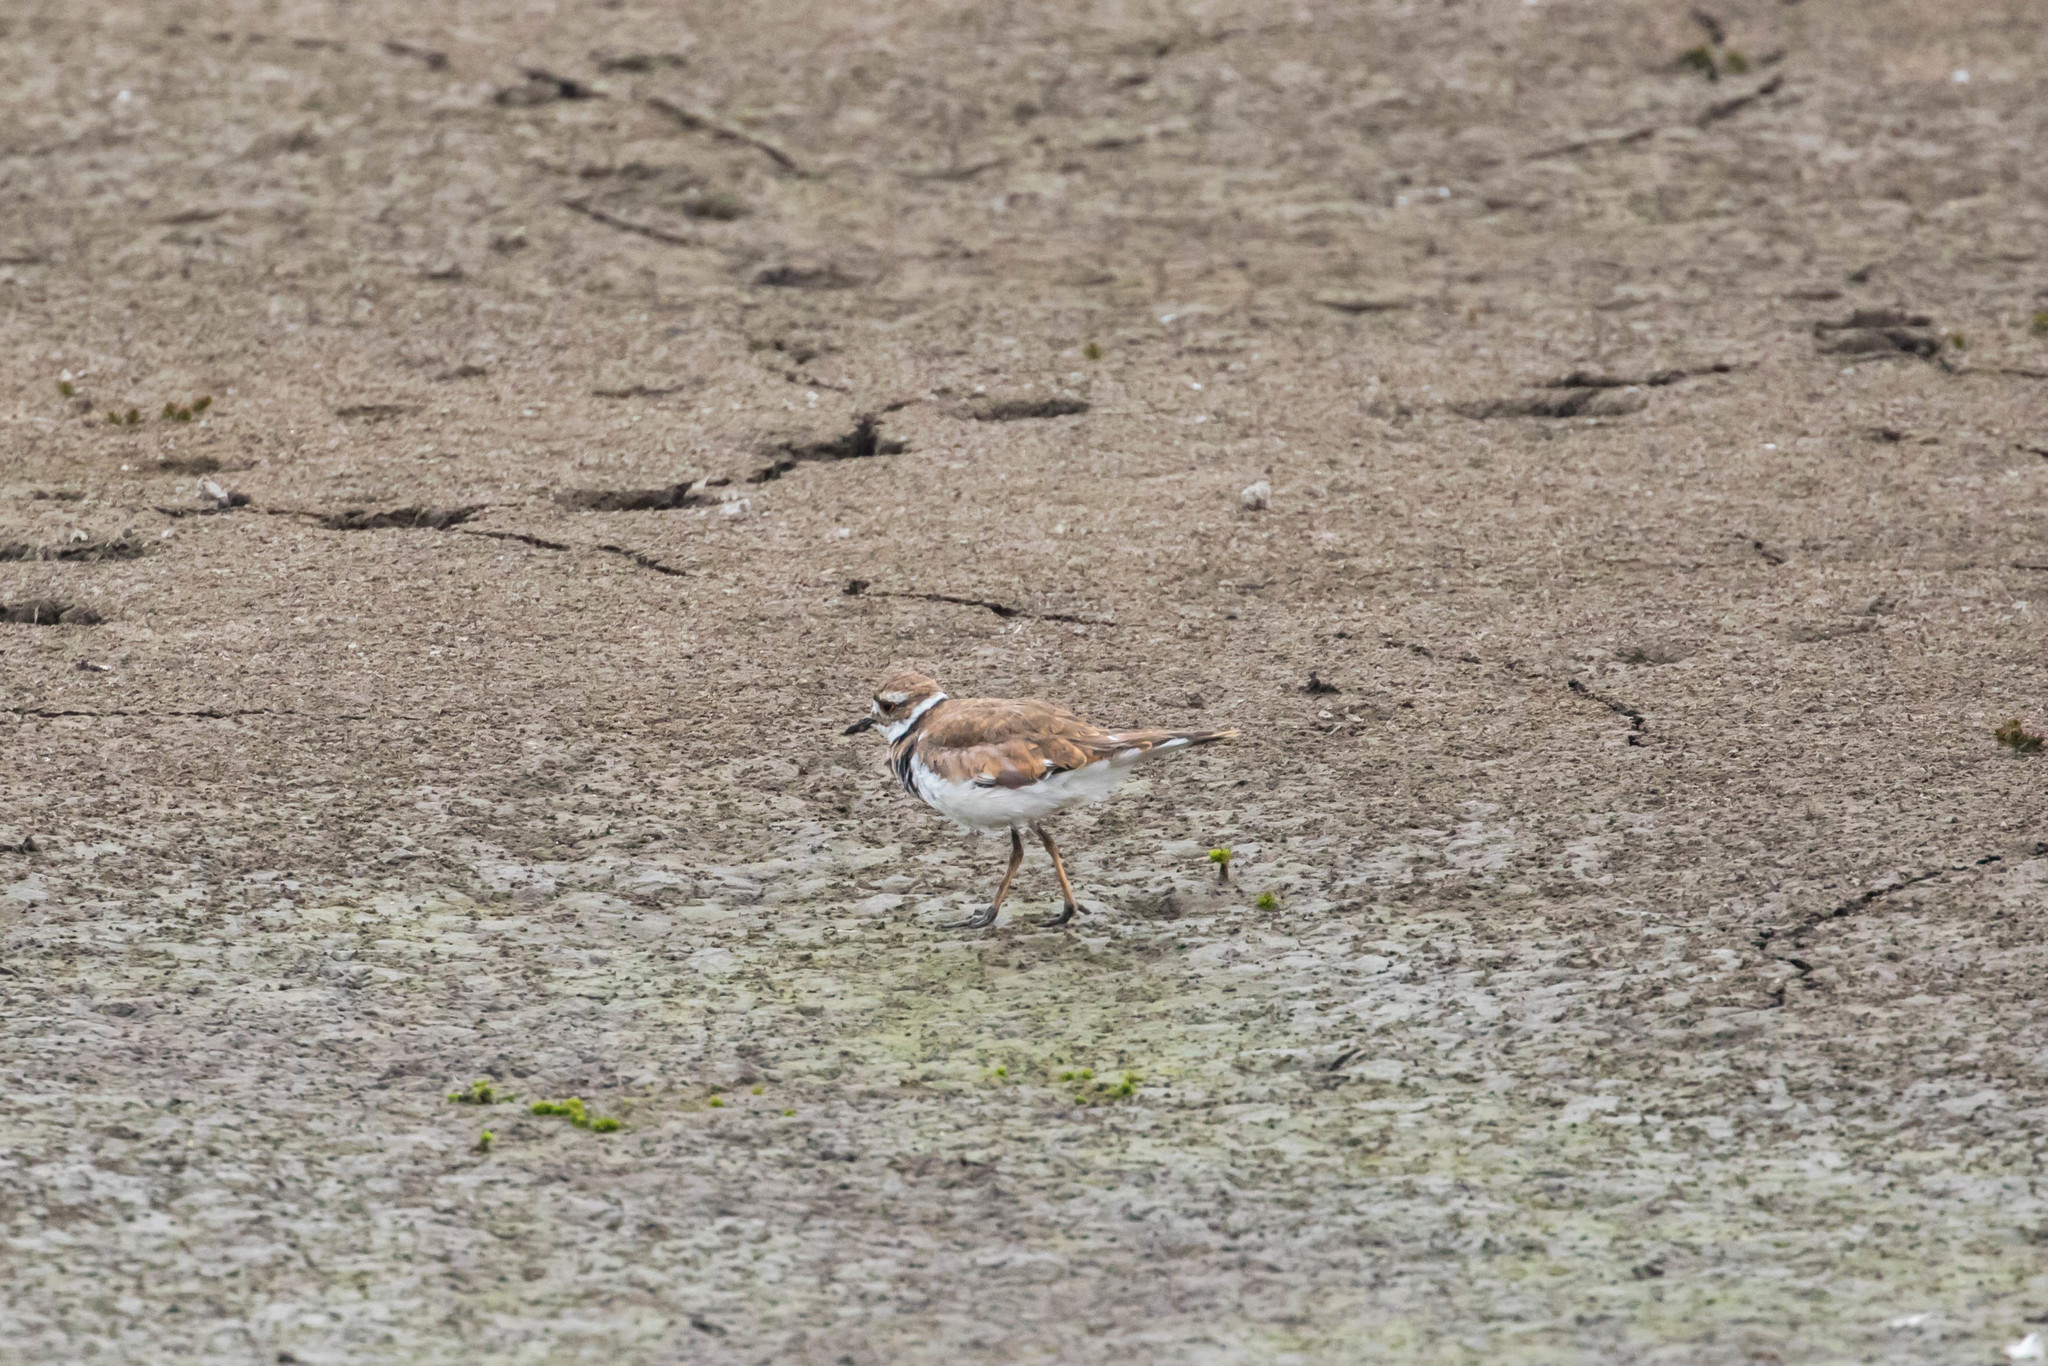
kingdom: Animalia
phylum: Chordata
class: Aves
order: Charadriiformes
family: Charadriidae
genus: Charadrius
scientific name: Charadrius vociferus
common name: Killdeer
